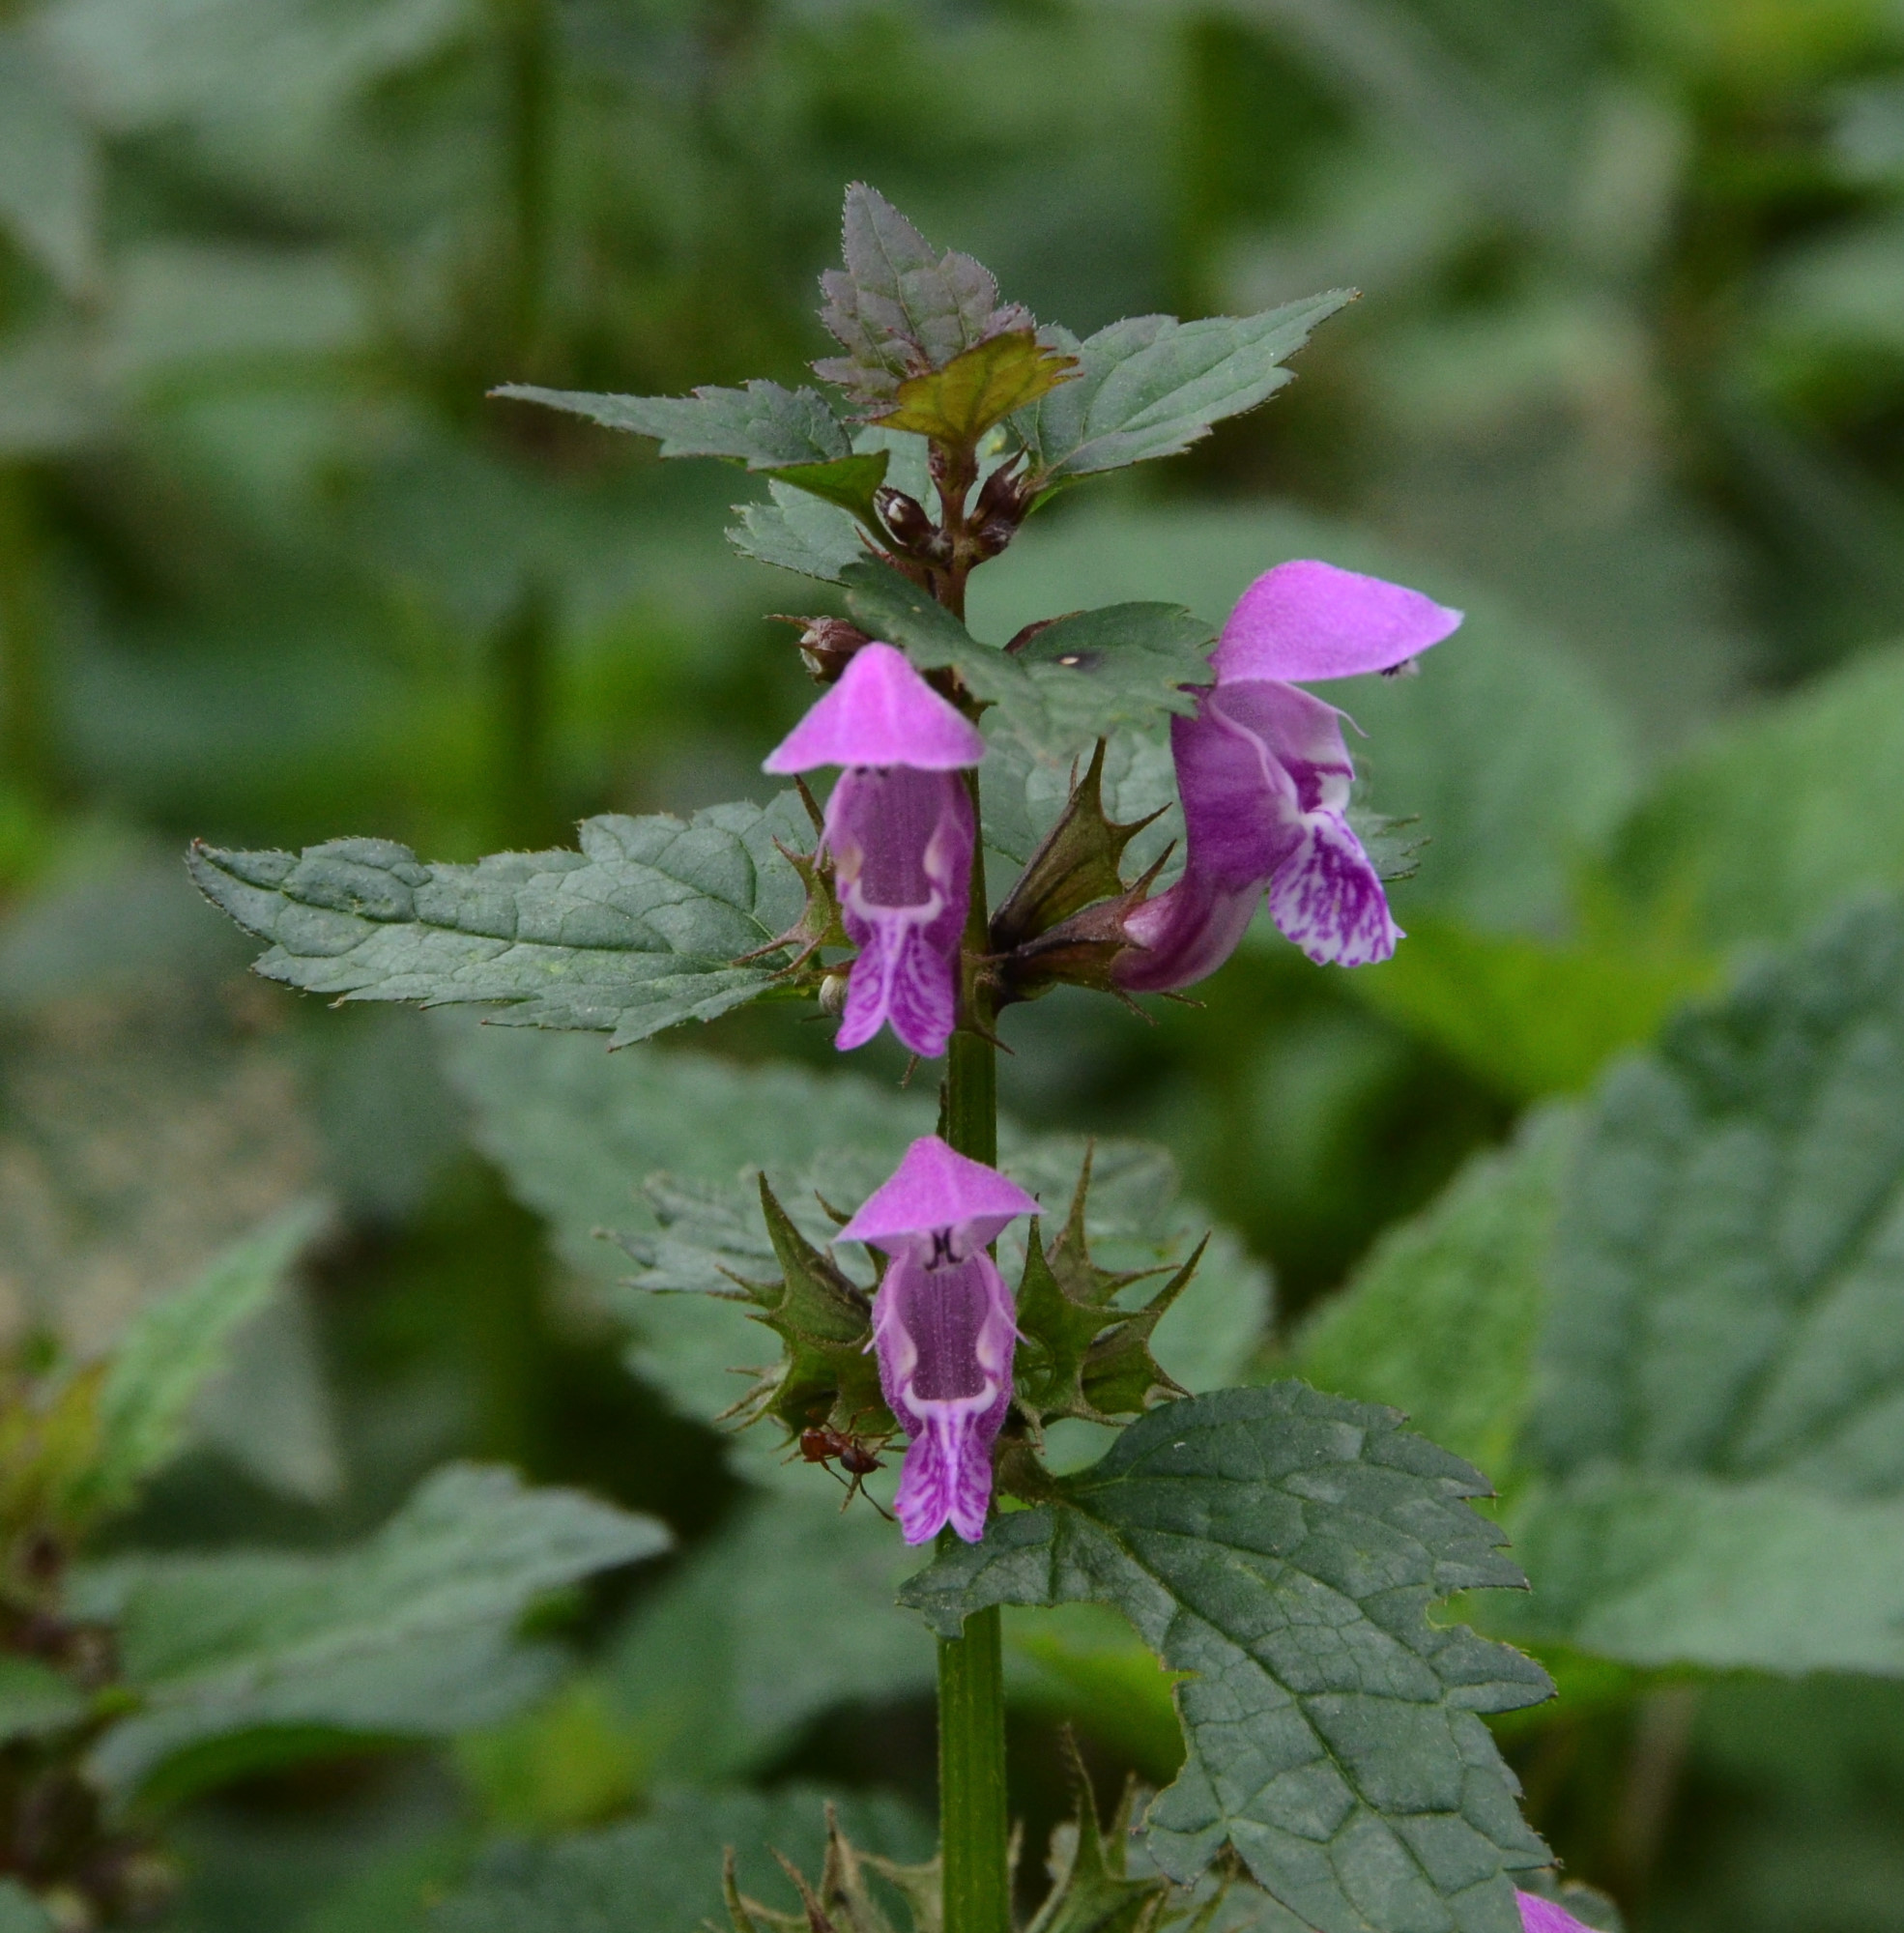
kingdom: Plantae
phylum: Tracheophyta
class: Magnoliopsida
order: Lamiales
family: Lamiaceae
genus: Lamium
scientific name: Lamium maculatum
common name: Spotted dead-nettle
